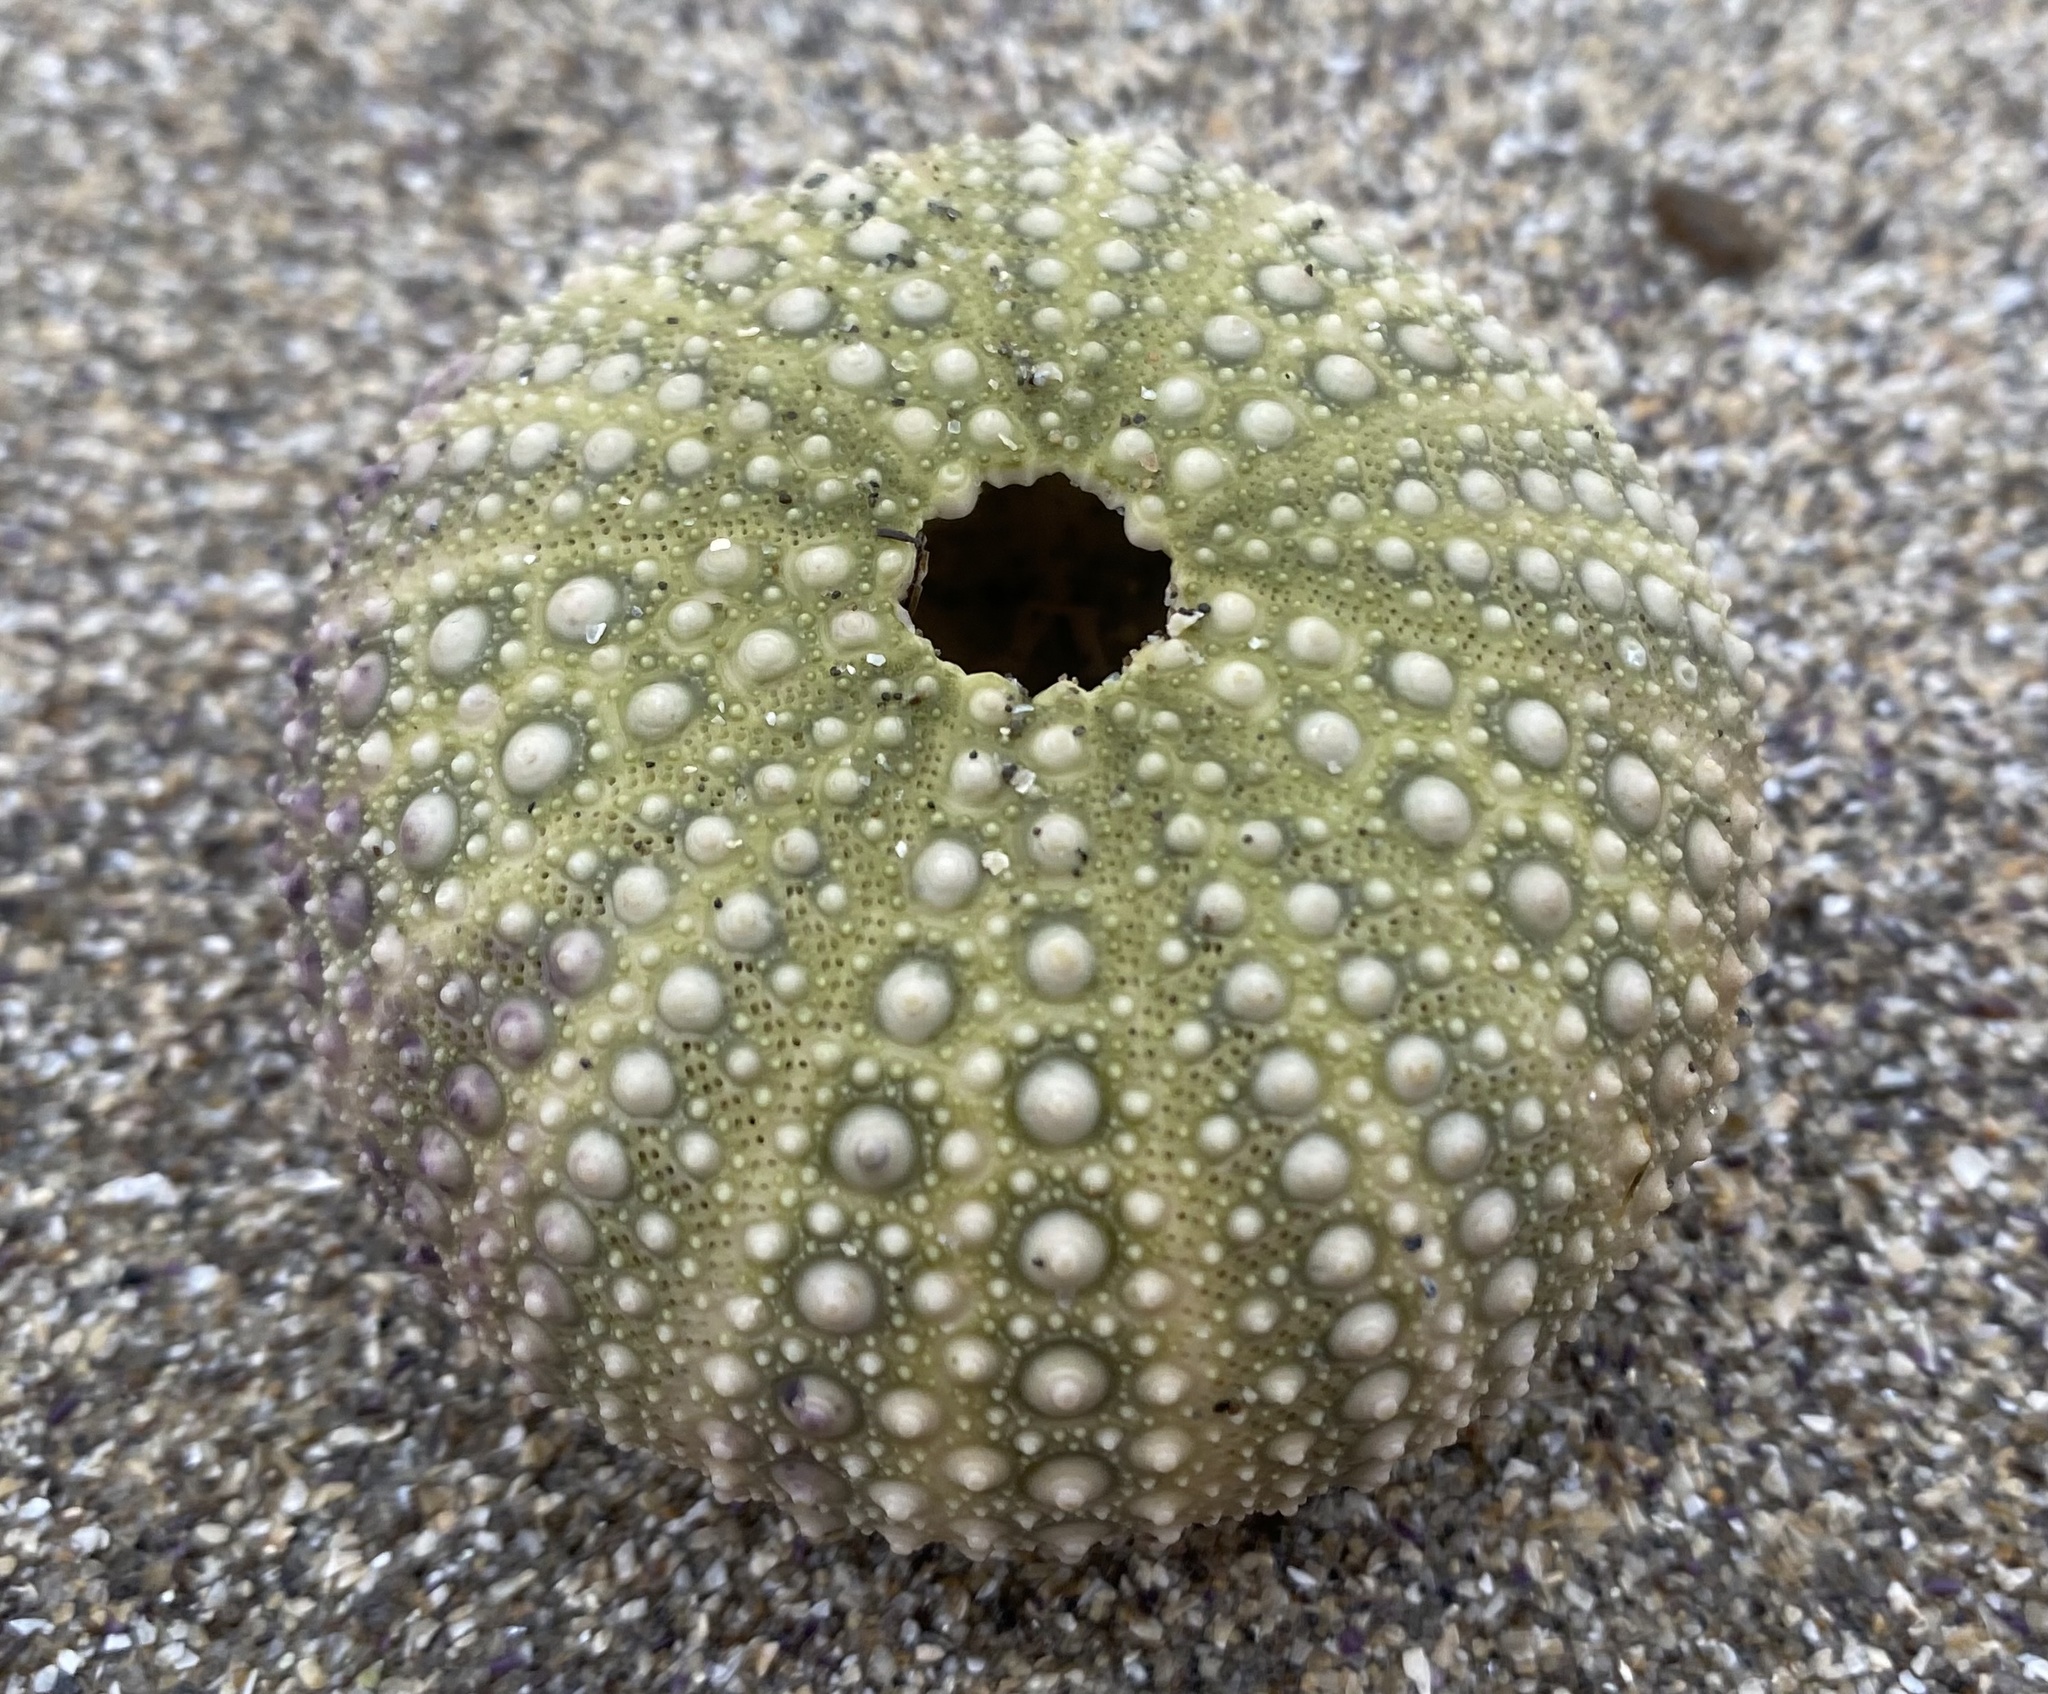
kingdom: Animalia
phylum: Echinodermata
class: Echinoidea
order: Camarodonta
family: Strongylocentrotidae
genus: Strongylocentrotus
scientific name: Strongylocentrotus purpuratus
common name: Purple sea urchin
